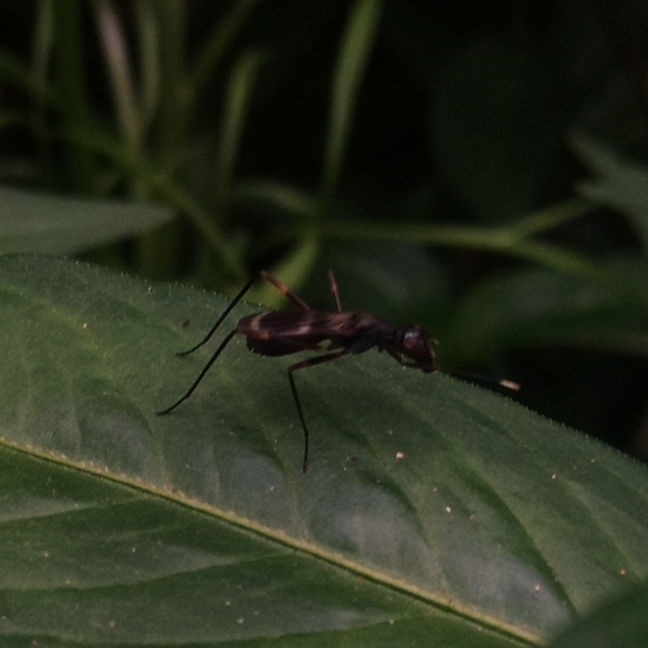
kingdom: Animalia
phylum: Arthropoda
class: Insecta
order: Diptera
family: Micropezidae
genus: Taeniaptera
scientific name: Taeniaptera trivittata
